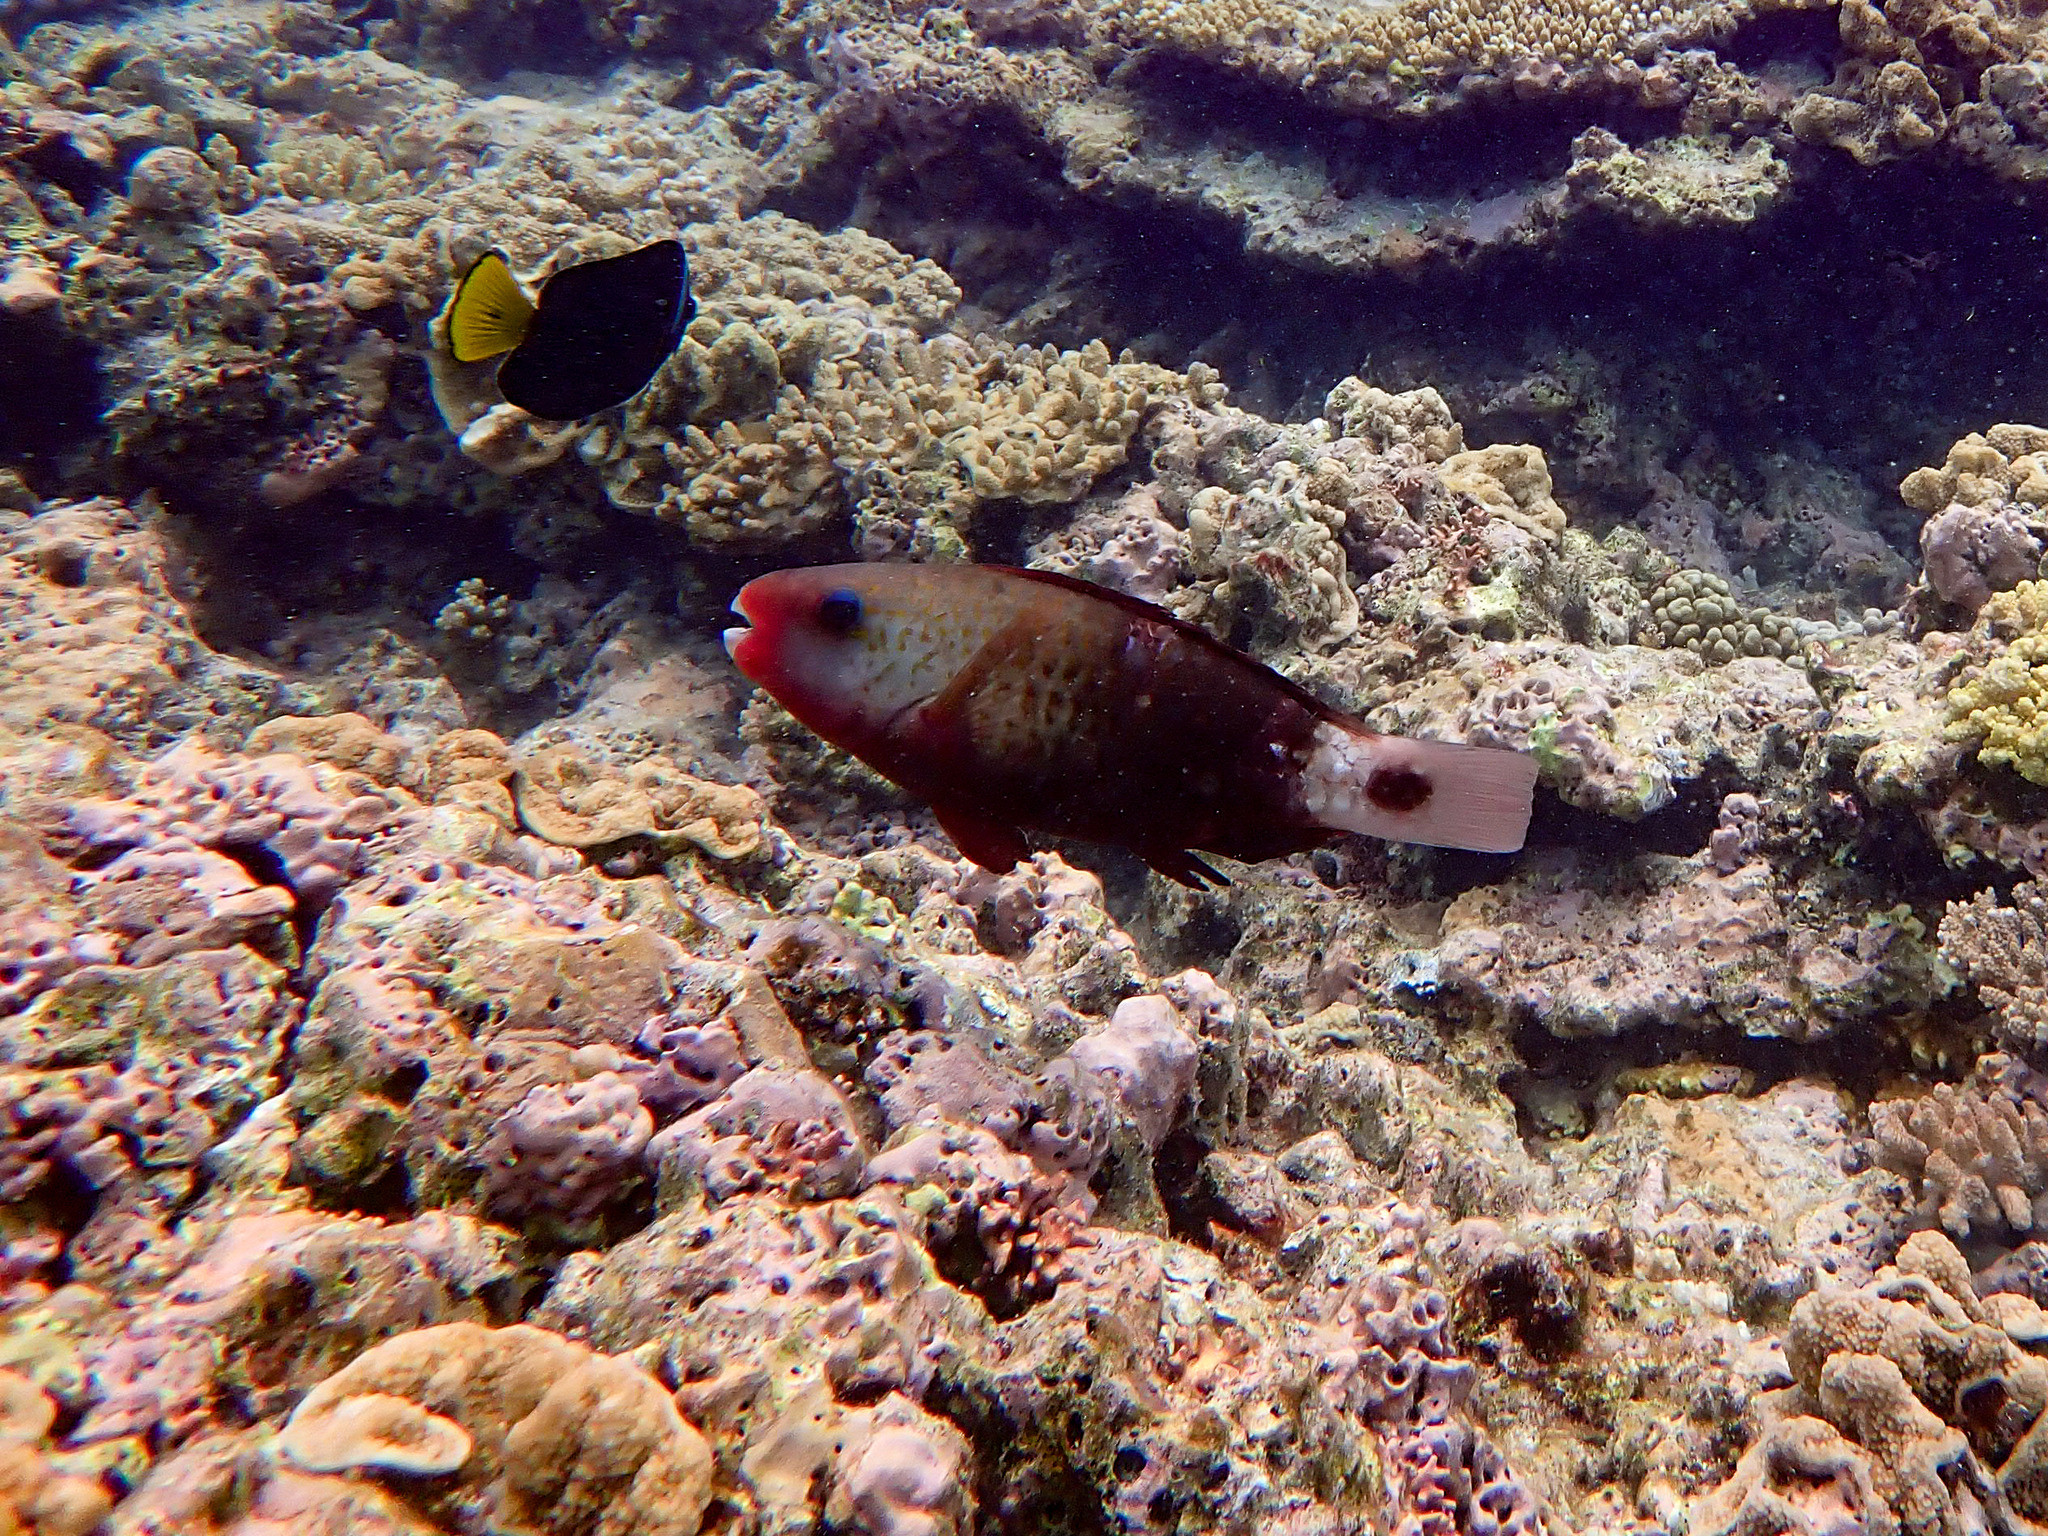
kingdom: Animalia
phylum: Chordata
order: Perciformes
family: Scaridae
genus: Chlorurus
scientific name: Chlorurus spilurus
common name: Bullethead parrotfish
